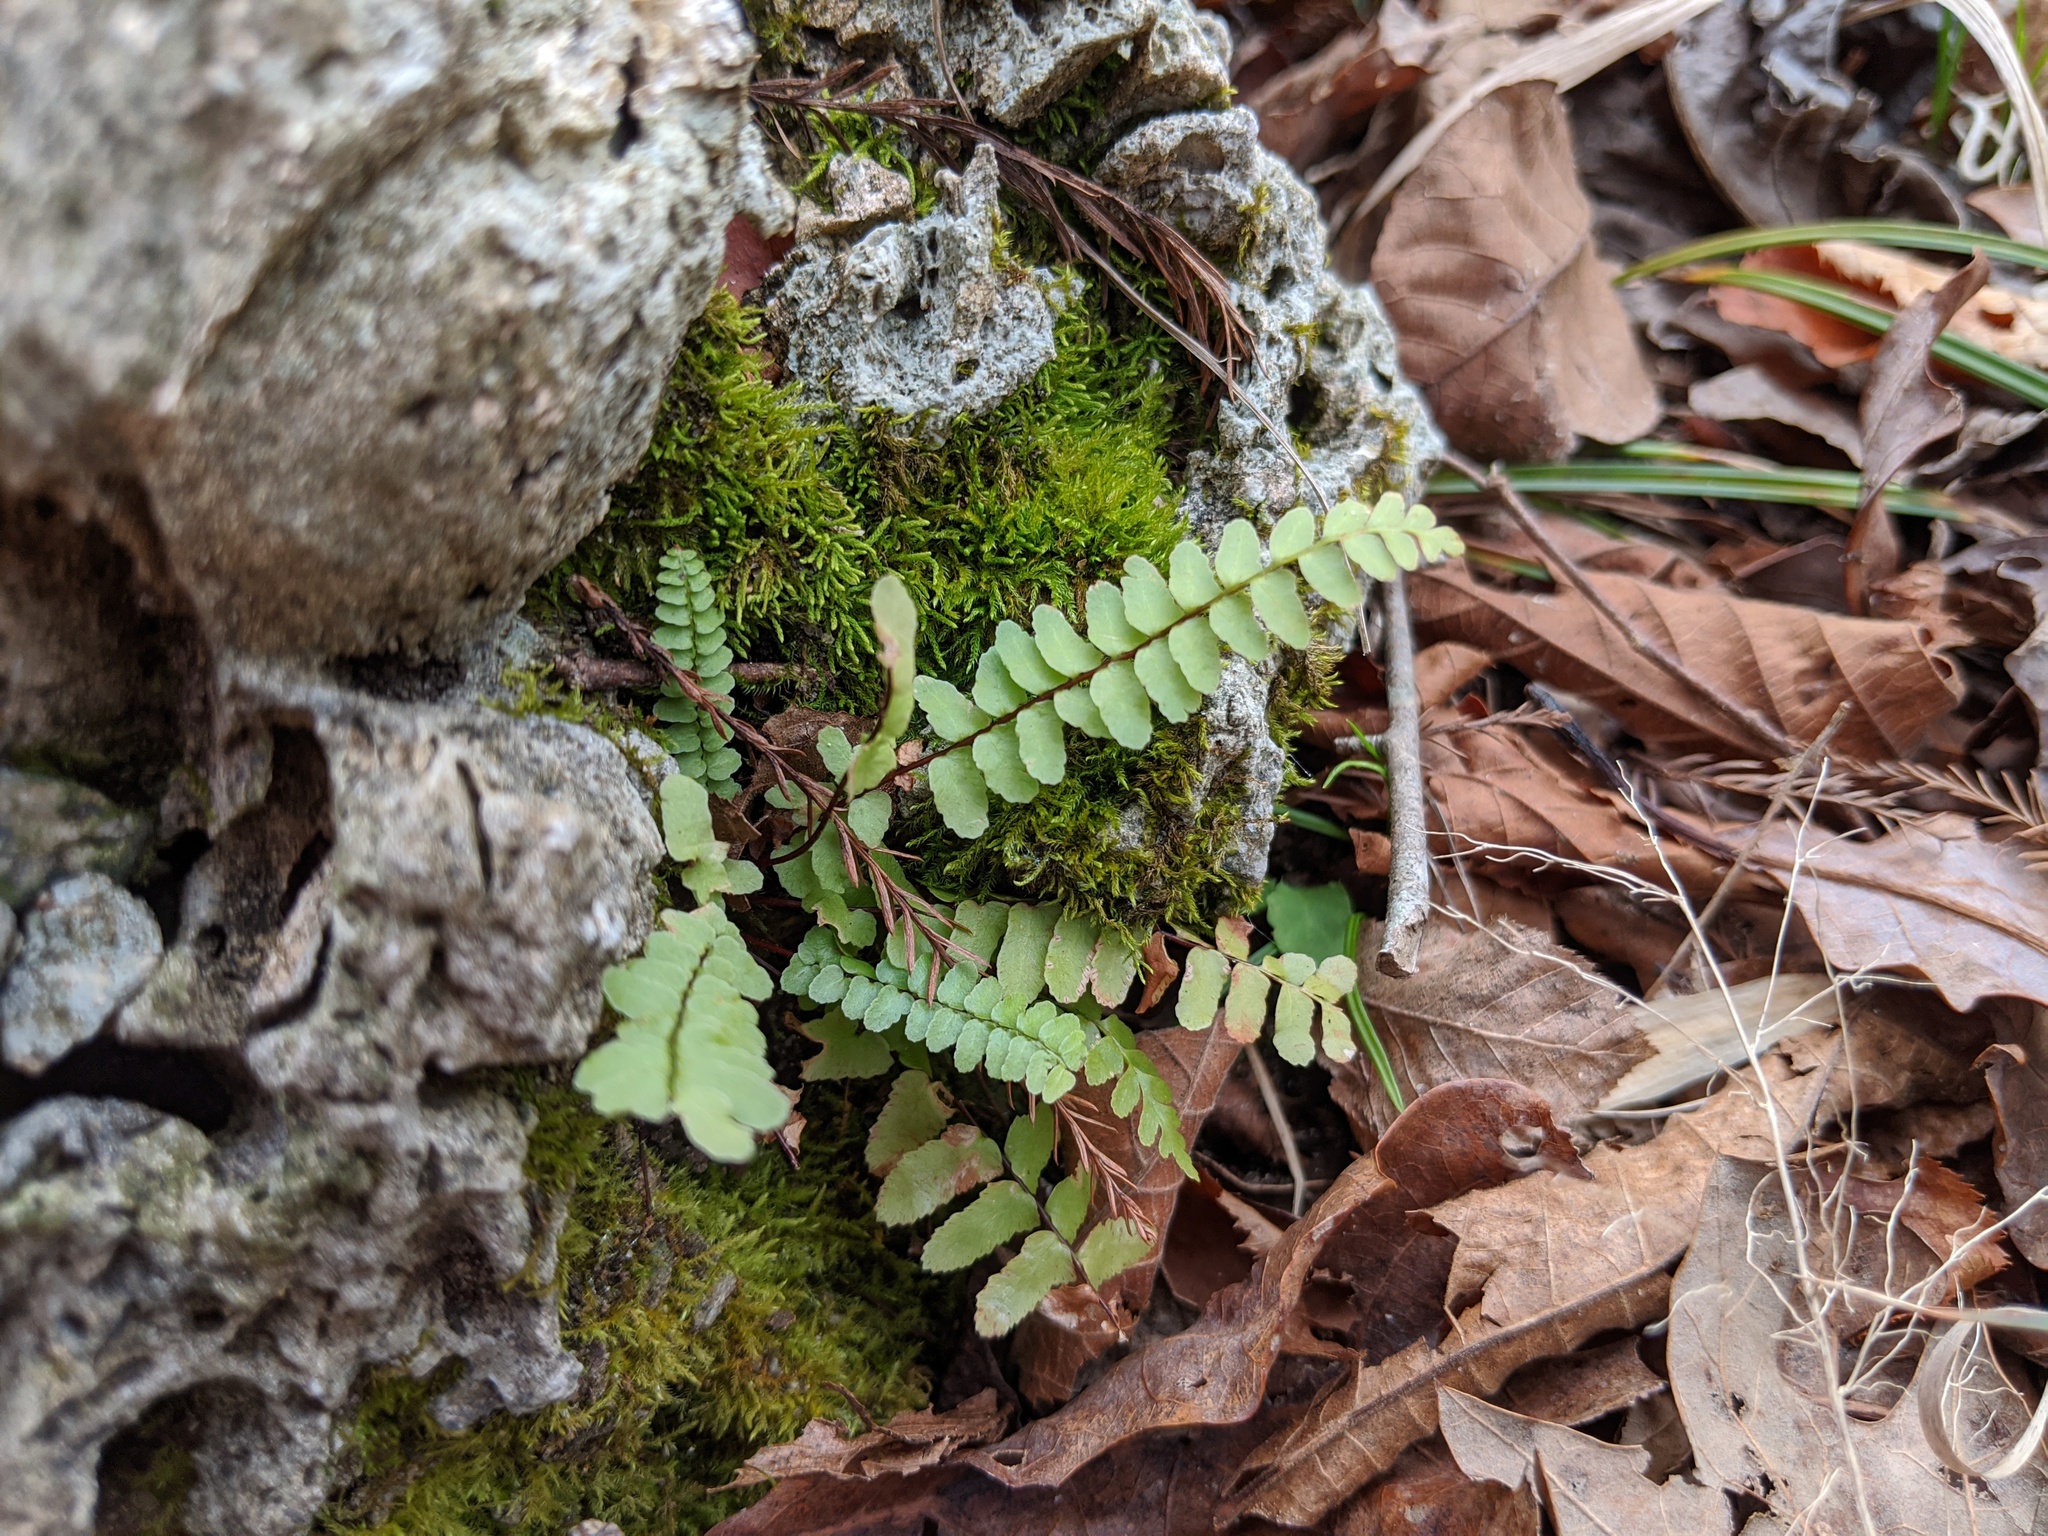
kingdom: Plantae
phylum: Tracheophyta
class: Polypodiopsida
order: Polypodiales
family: Aspleniaceae
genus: Asplenium
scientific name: Asplenium platyneuron
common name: Ebony spleenwort
